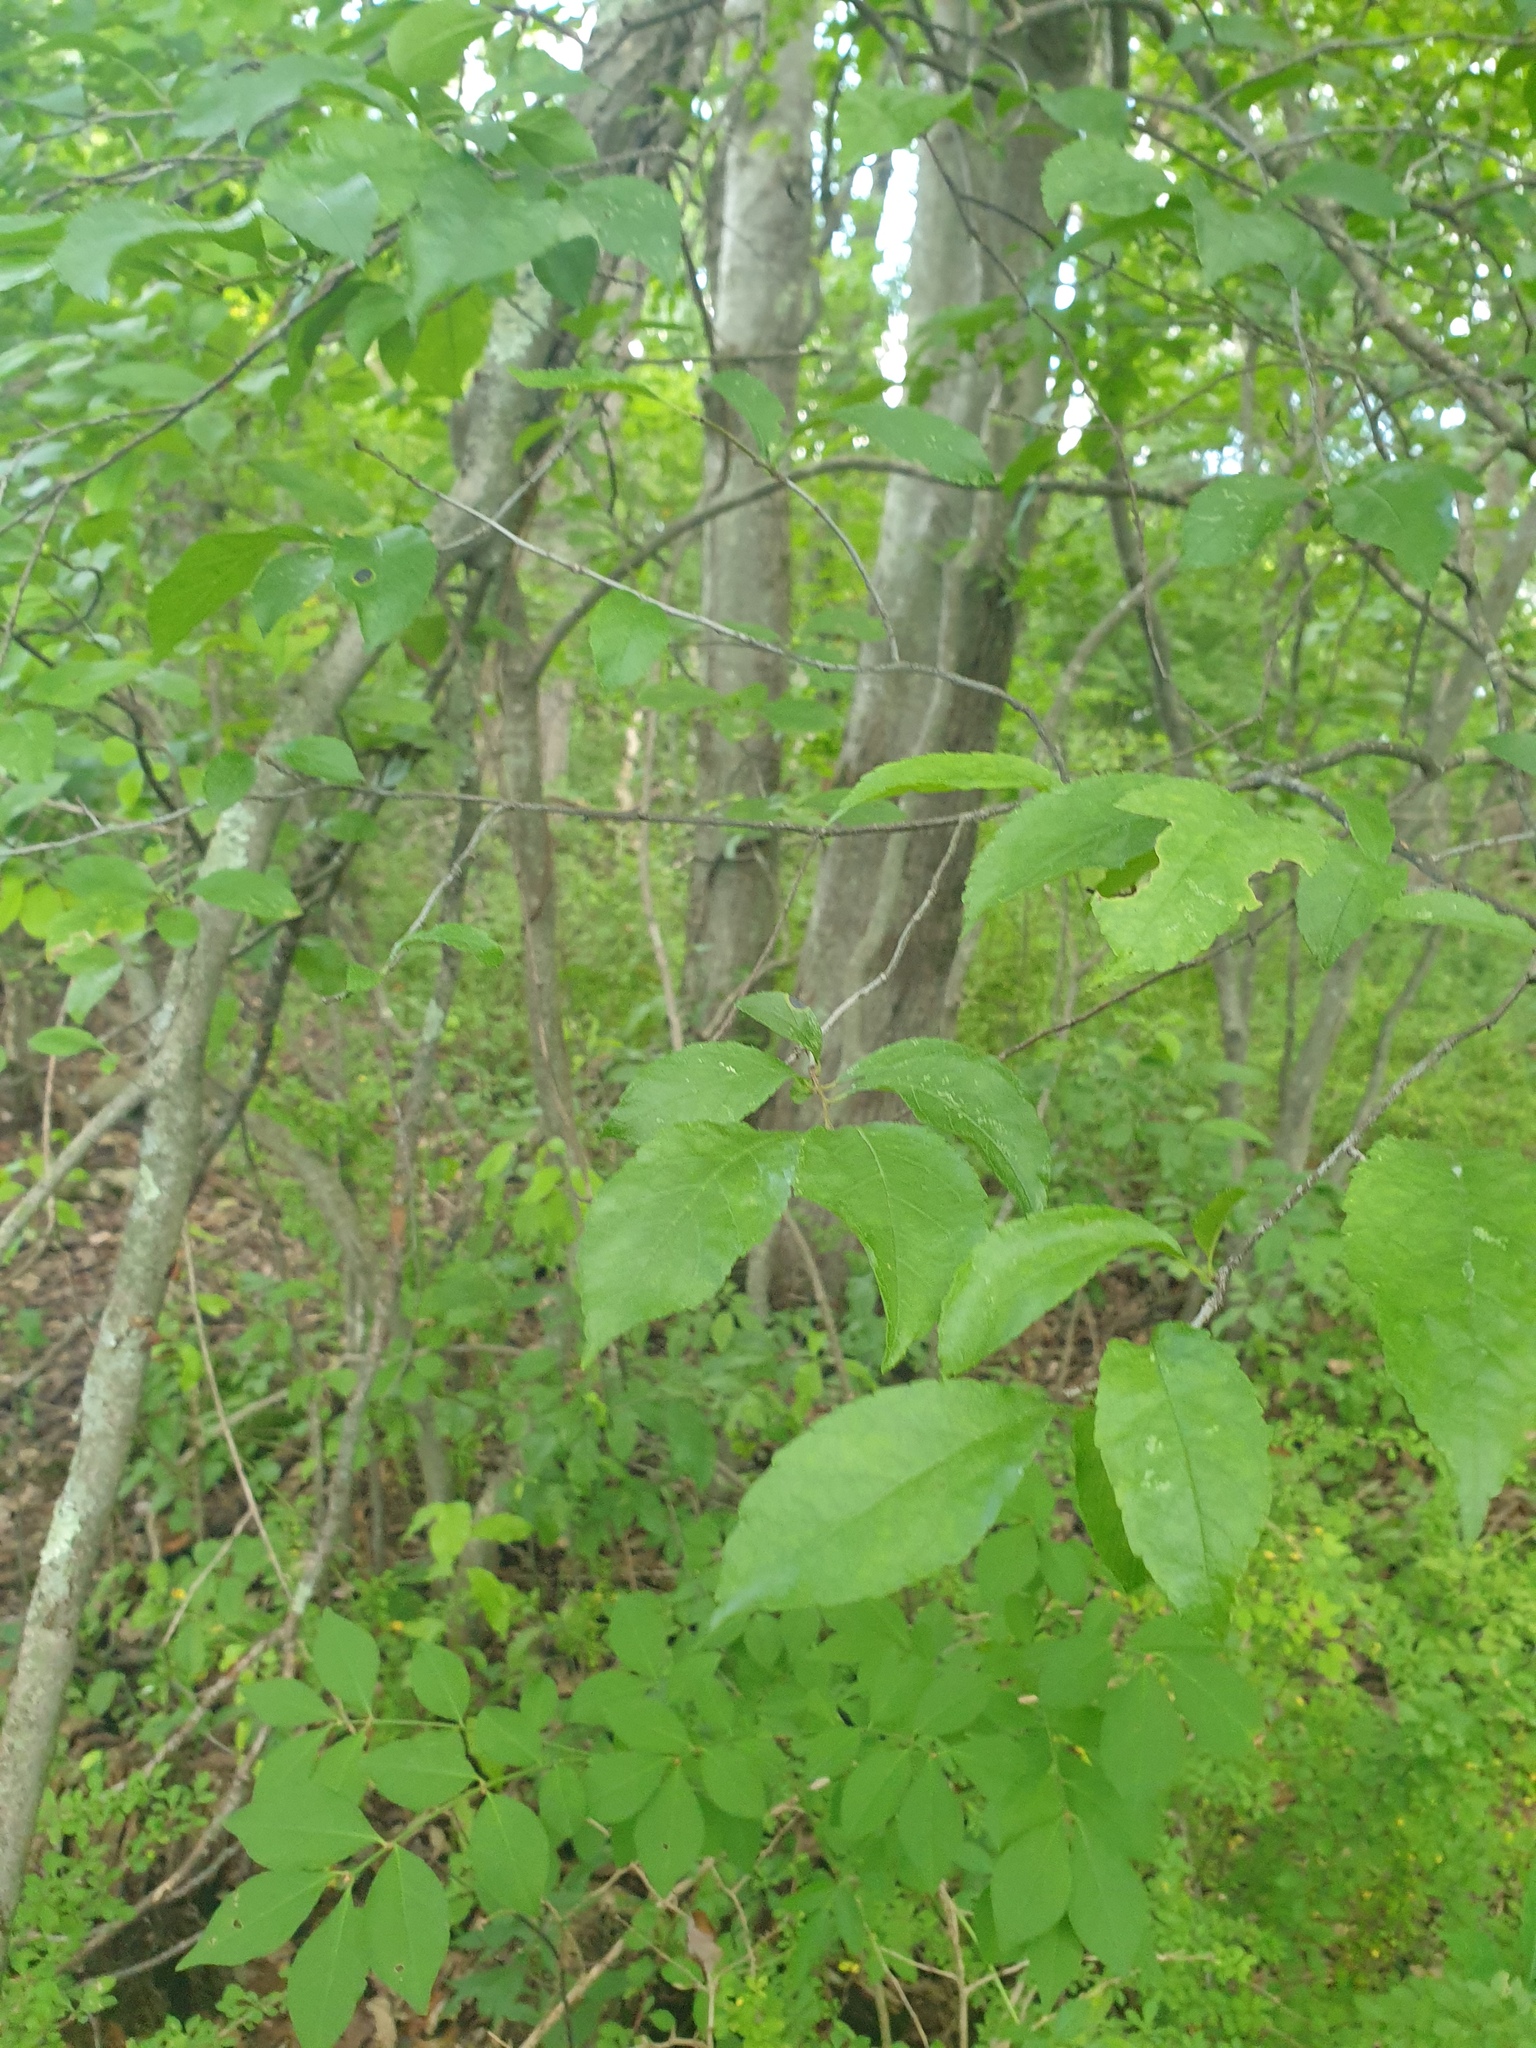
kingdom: Plantae
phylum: Tracheophyta
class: Magnoliopsida
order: Aquifoliales
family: Aquifoliaceae
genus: Ilex
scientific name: Ilex verticillata
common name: Virginia winterberry
